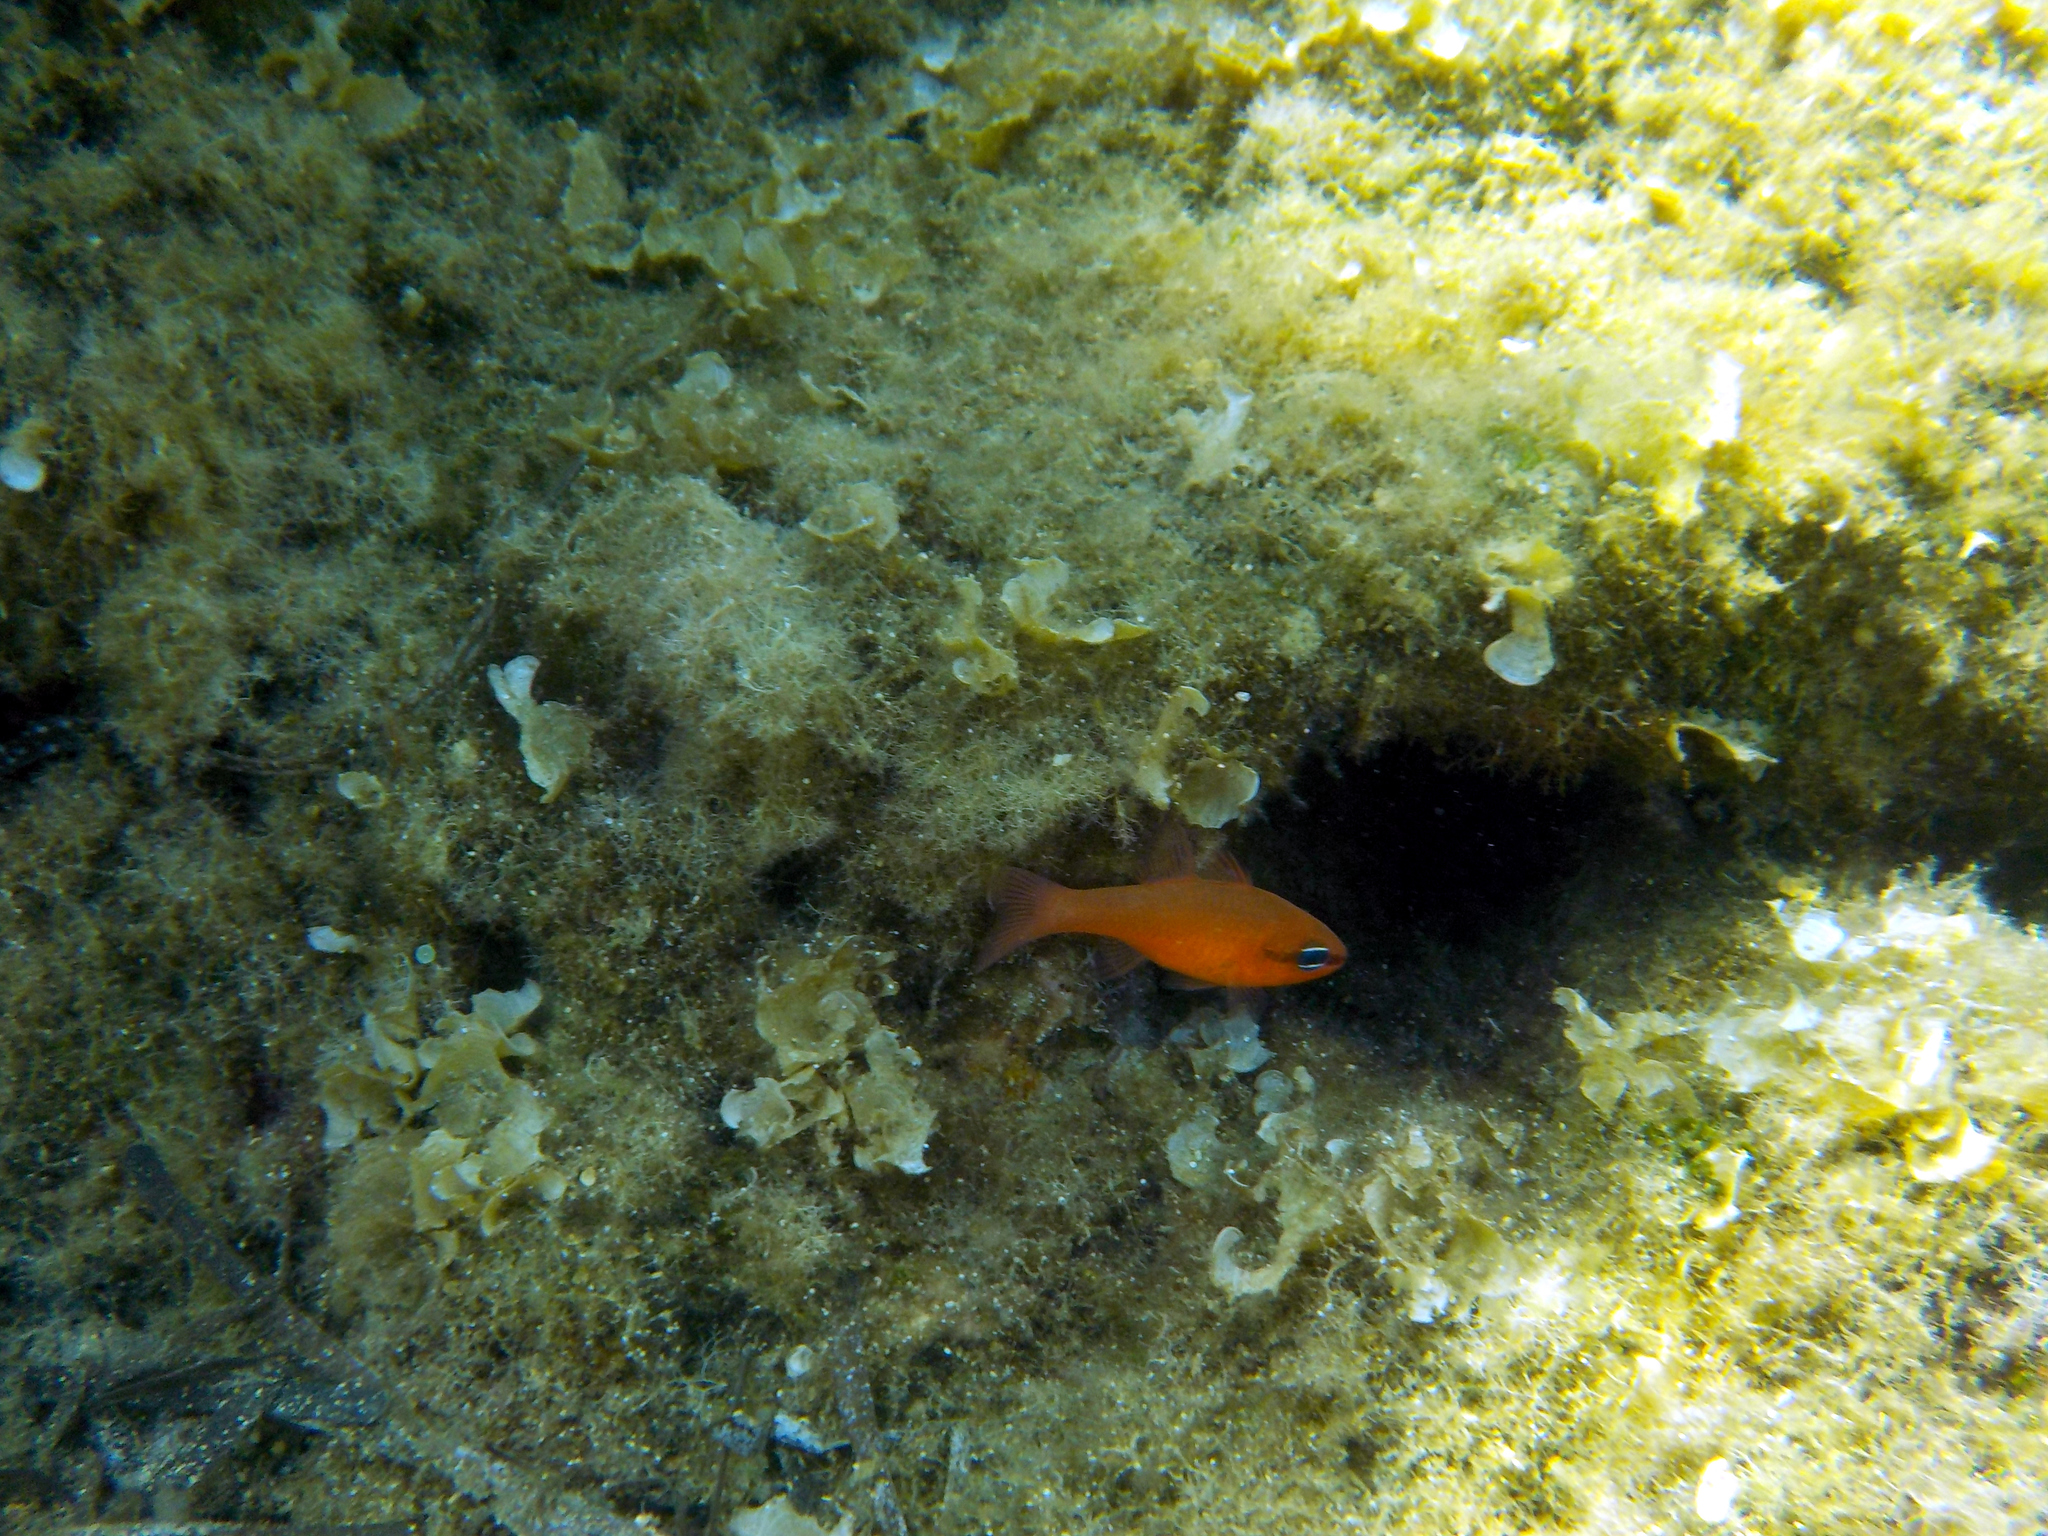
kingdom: Animalia
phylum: Chordata
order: Perciformes
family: Apogonidae
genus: Apogon
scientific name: Apogon imberbis
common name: Cardinal fish
